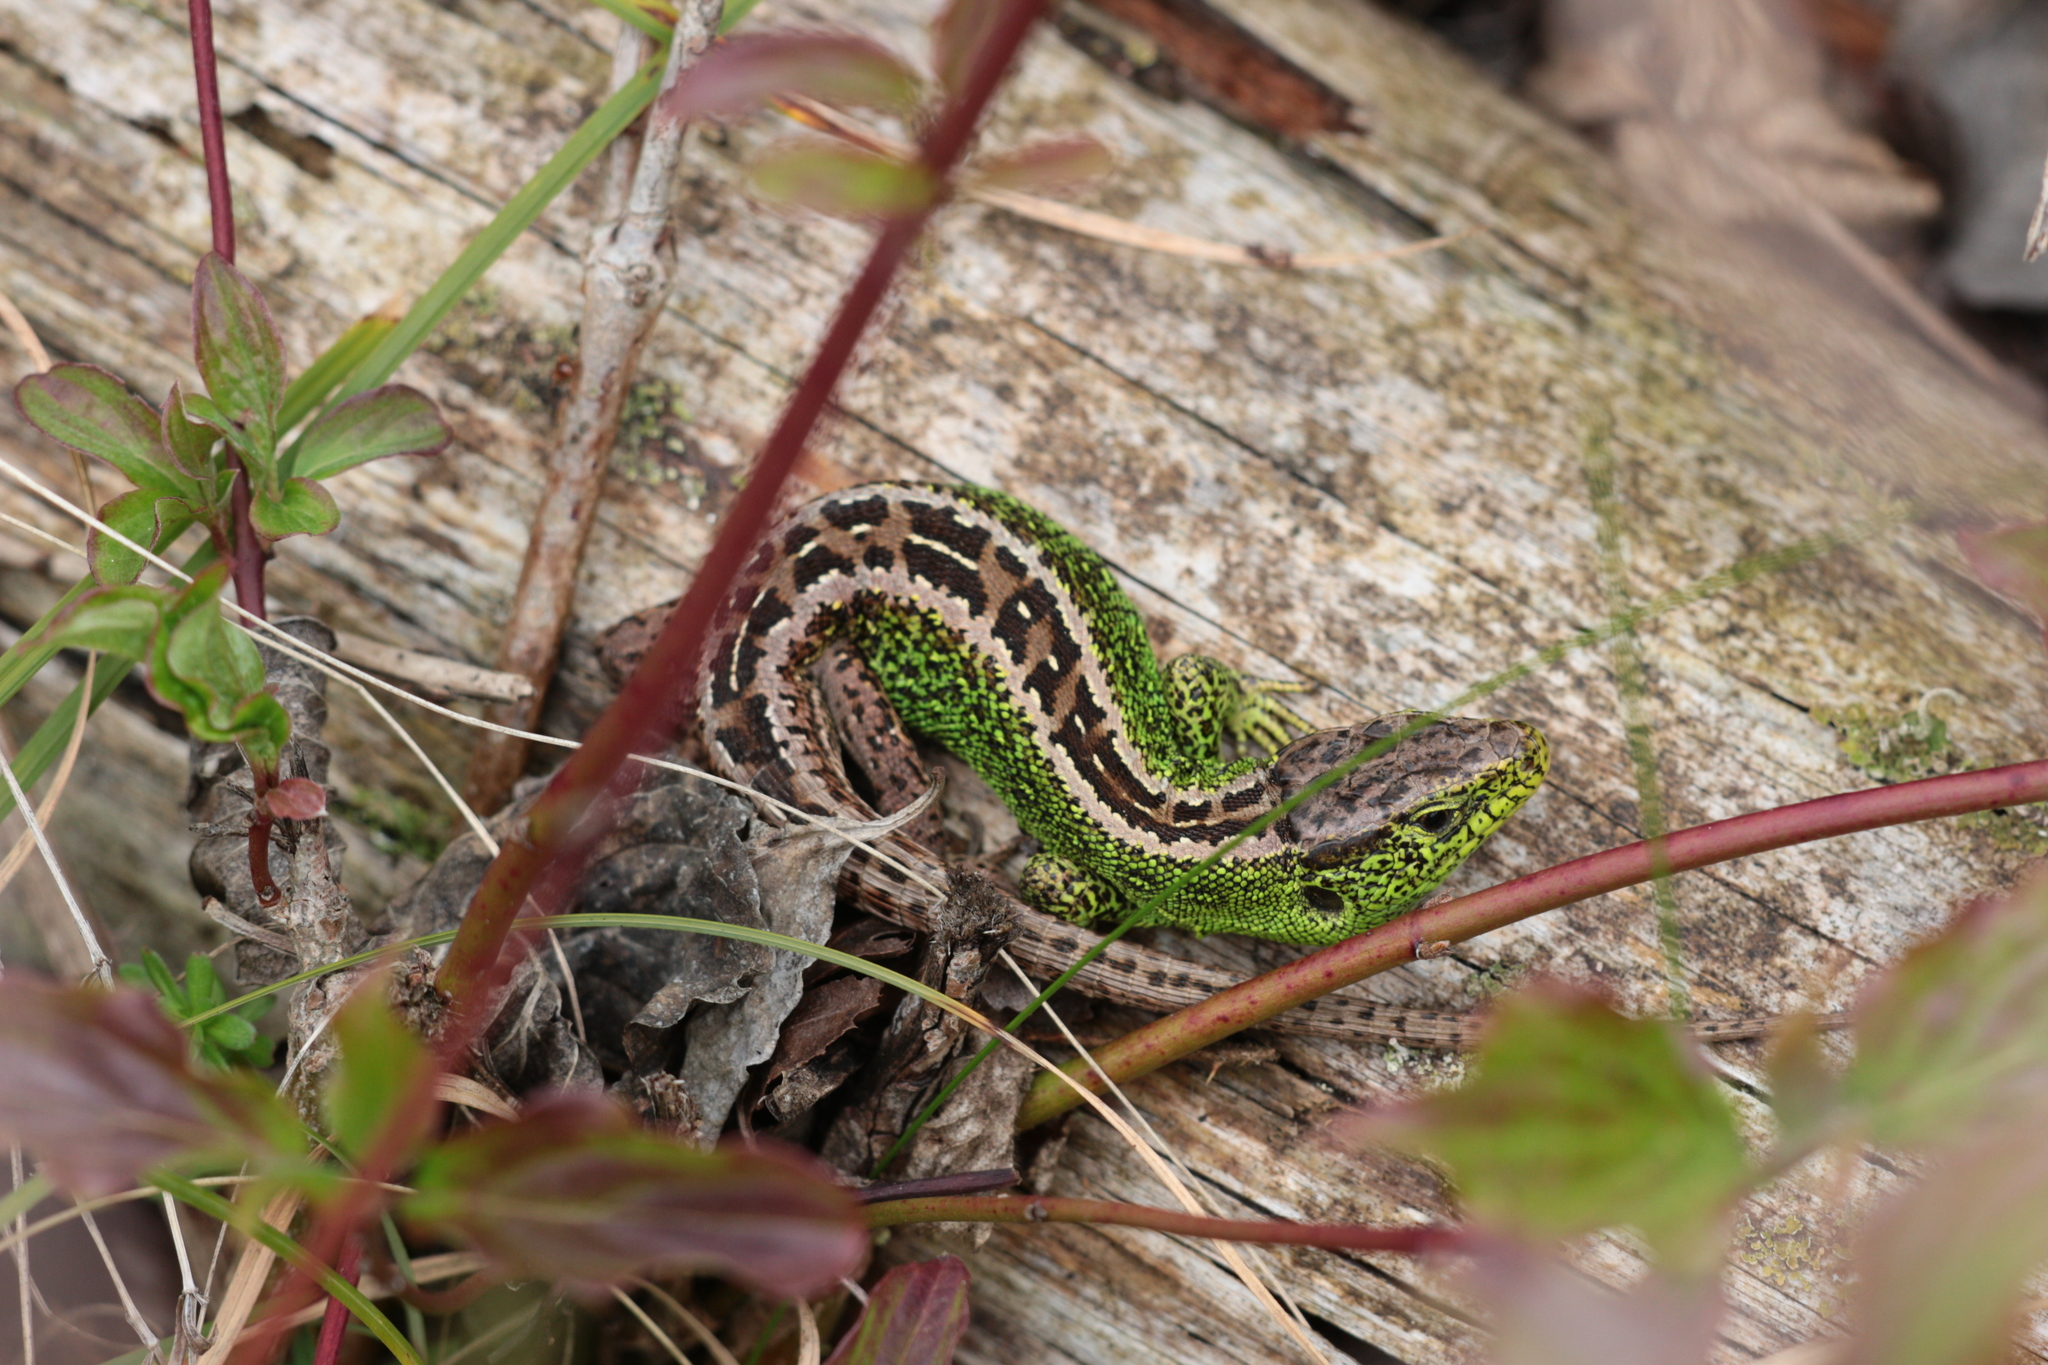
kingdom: Animalia
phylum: Chordata
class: Squamata
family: Lacertidae
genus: Lacerta
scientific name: Lacerta agilis
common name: Sand lizard
